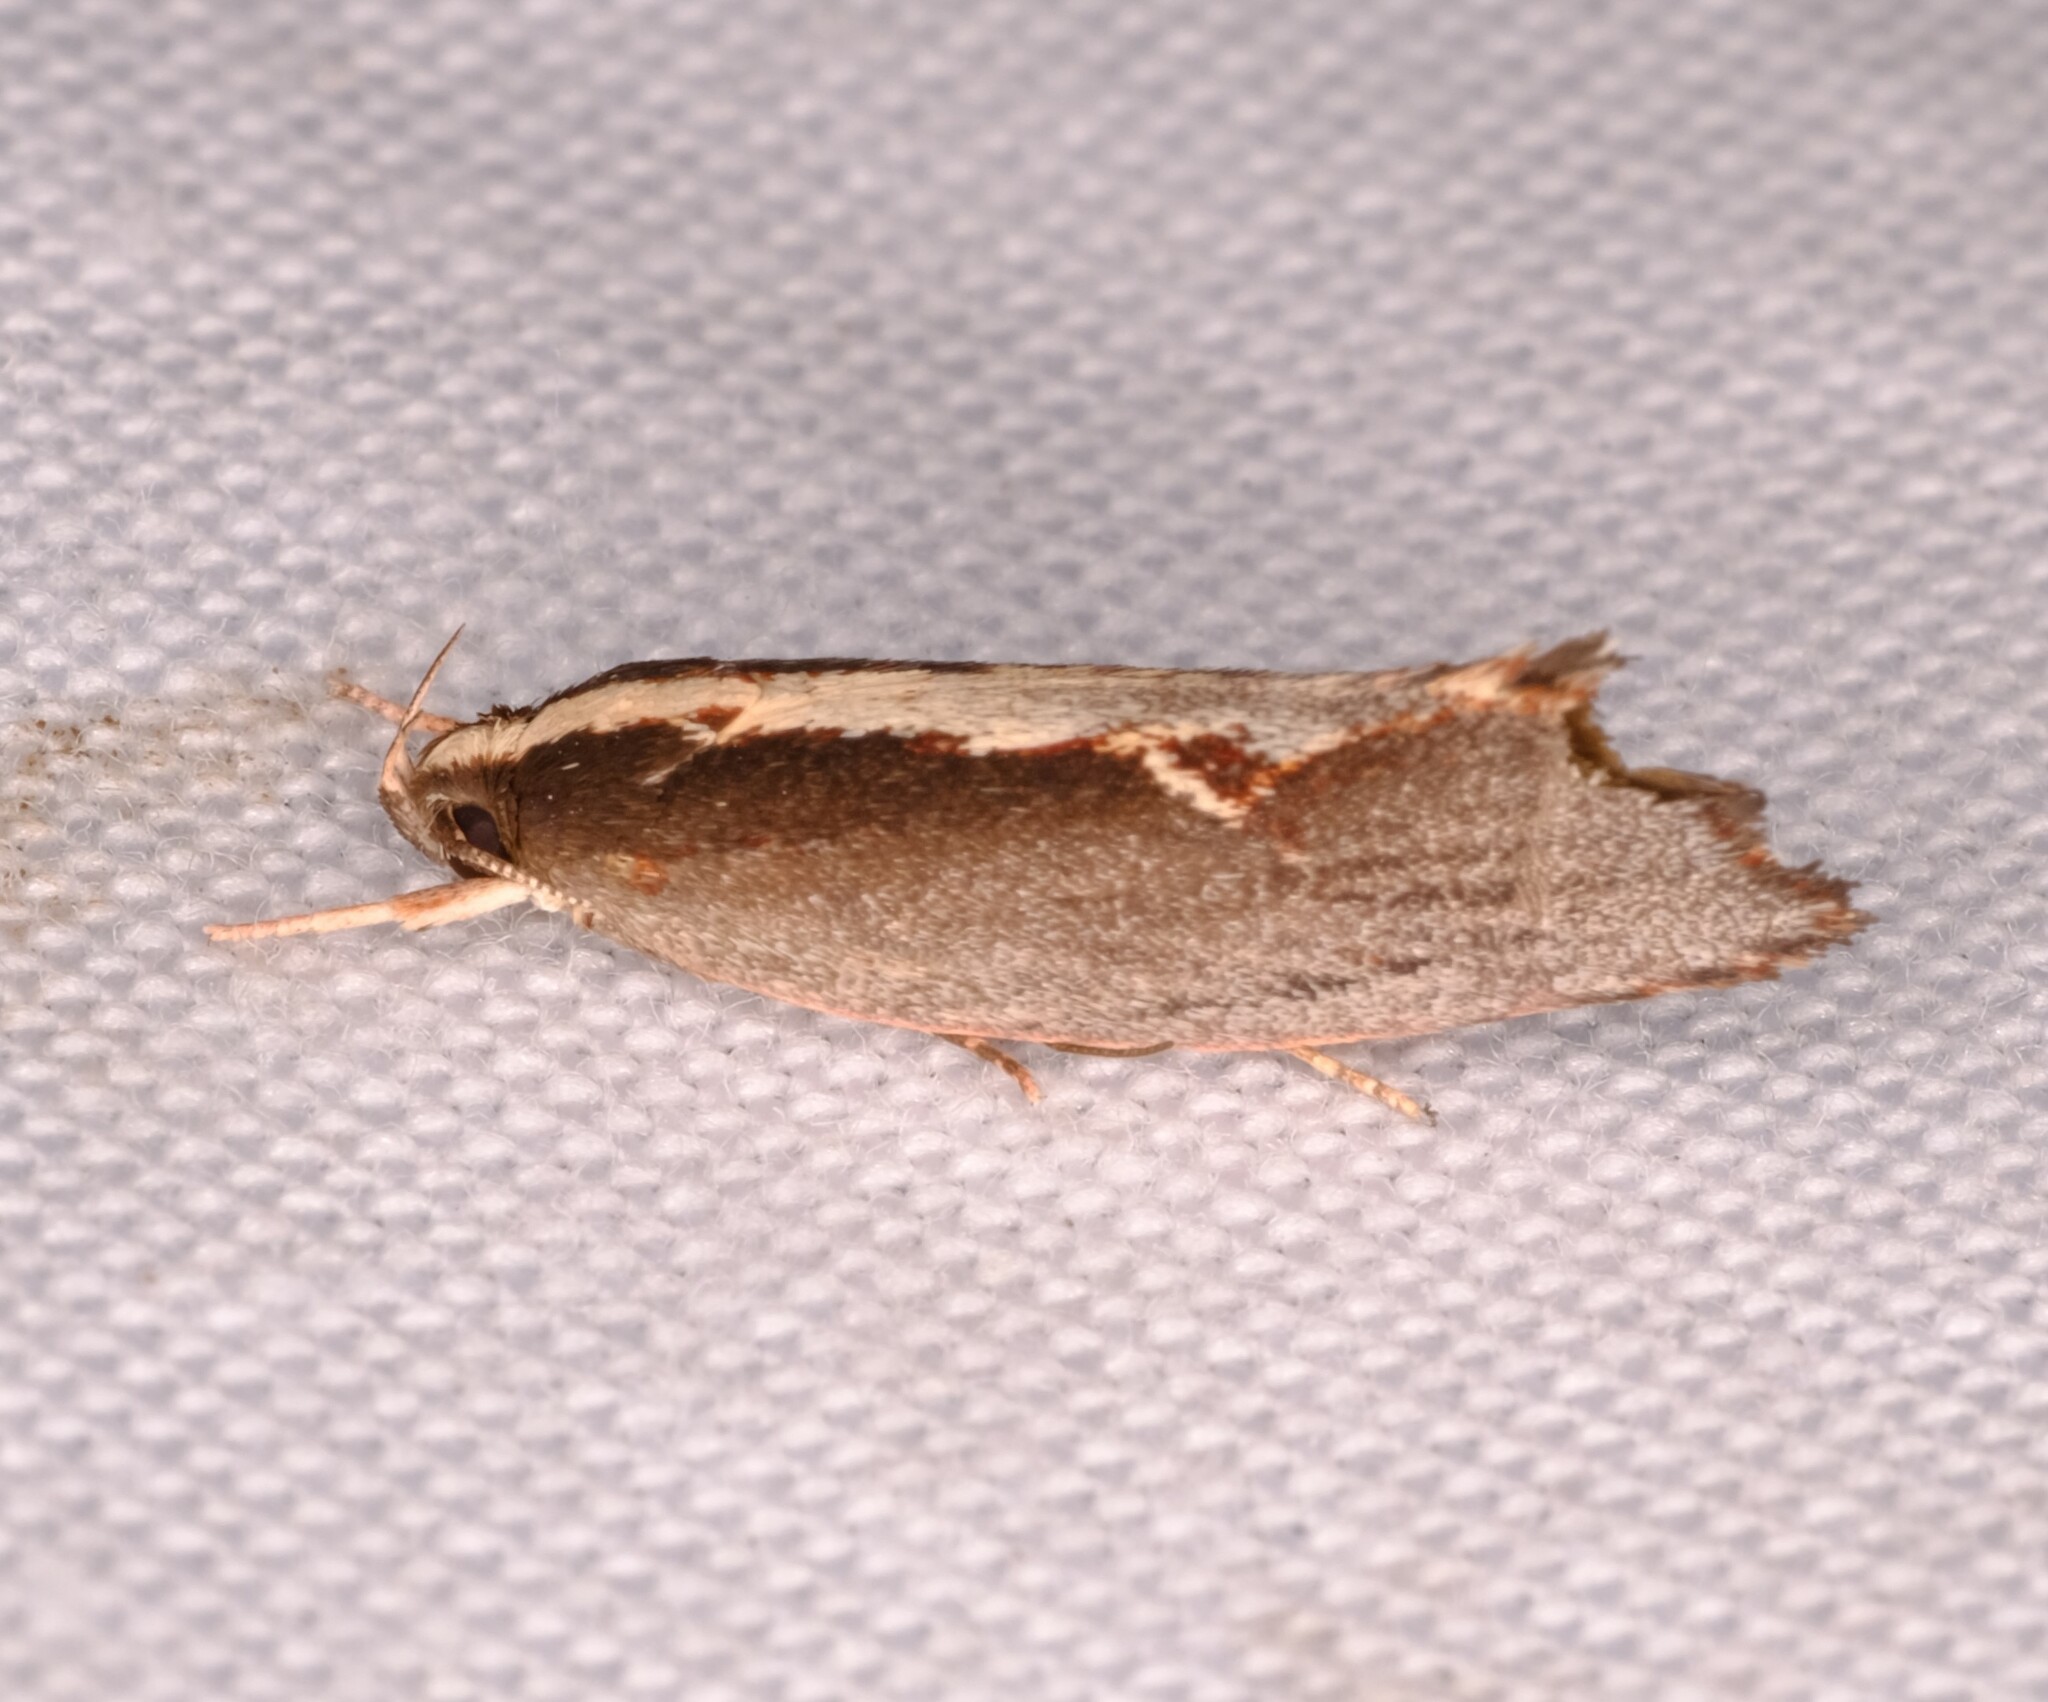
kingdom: Animalia
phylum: Arthropoda
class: Insecta
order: Lepidoptera
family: Oecophoridae
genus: Archaereta
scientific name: Archaereta dorsivittella
